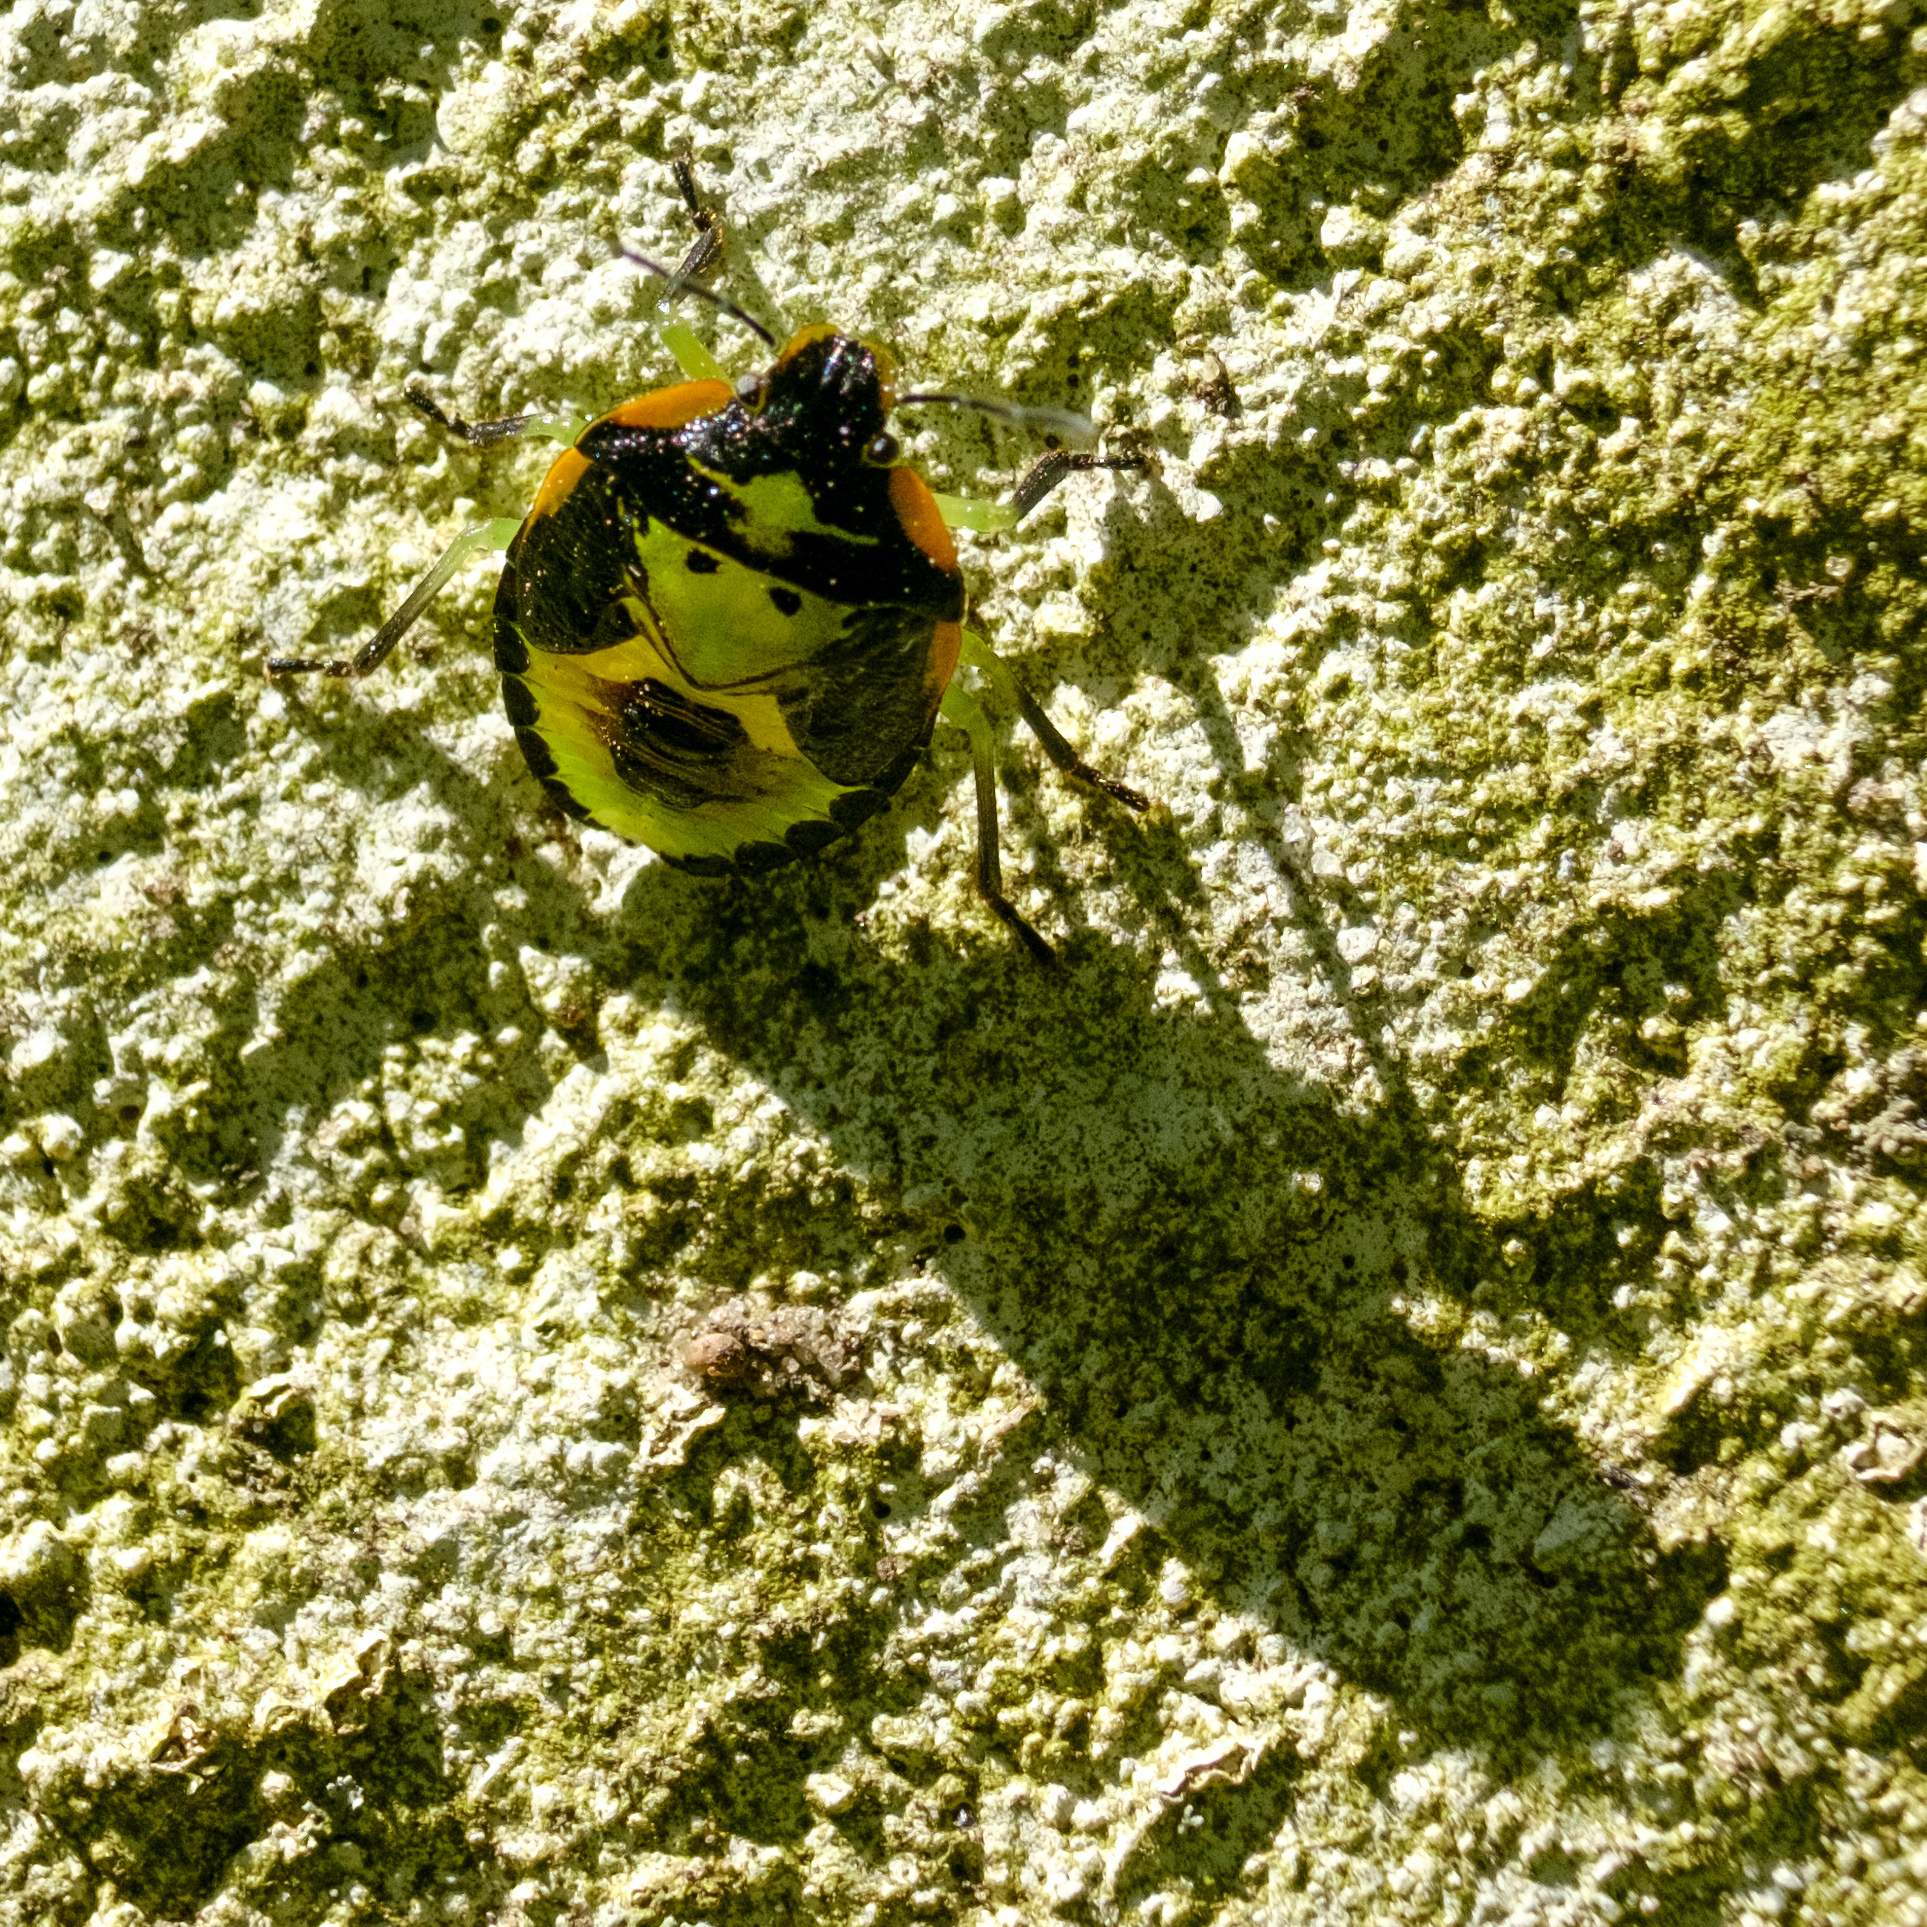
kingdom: Animalia
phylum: Arthropoda
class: Insecta
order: Hemiptera
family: Pentatomidae
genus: Chinavia
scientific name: Chinavia hilaris
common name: Green stink bug
